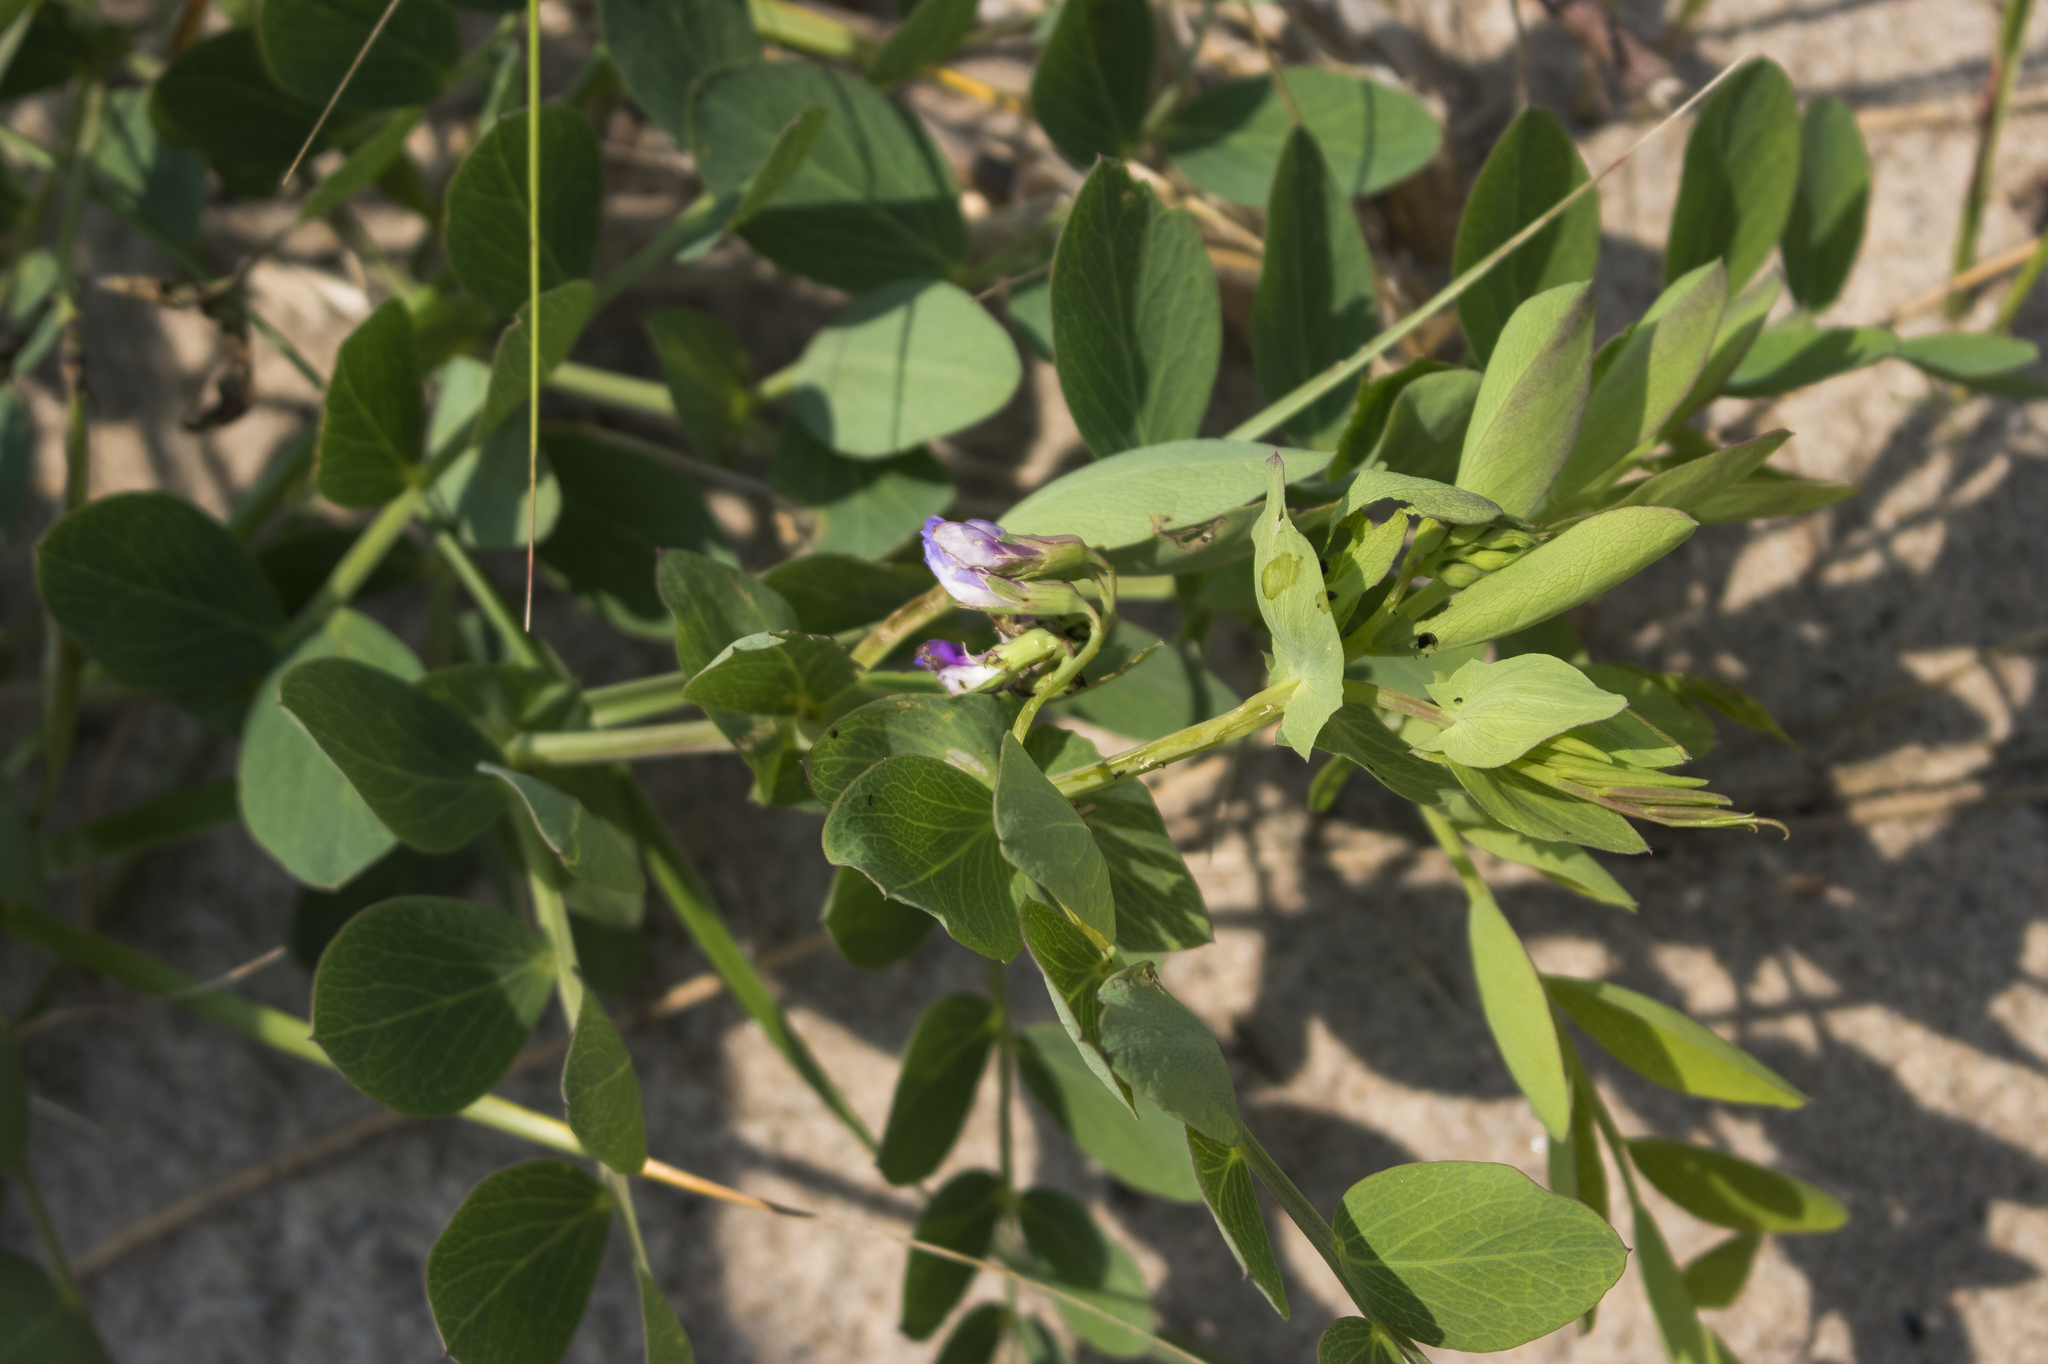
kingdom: Plantae
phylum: Tracheophyta
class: Magnoliopsida
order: Fabales
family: Fabaceae
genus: Lathyrus
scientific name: Lathyrus japonicus
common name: Sea pea
